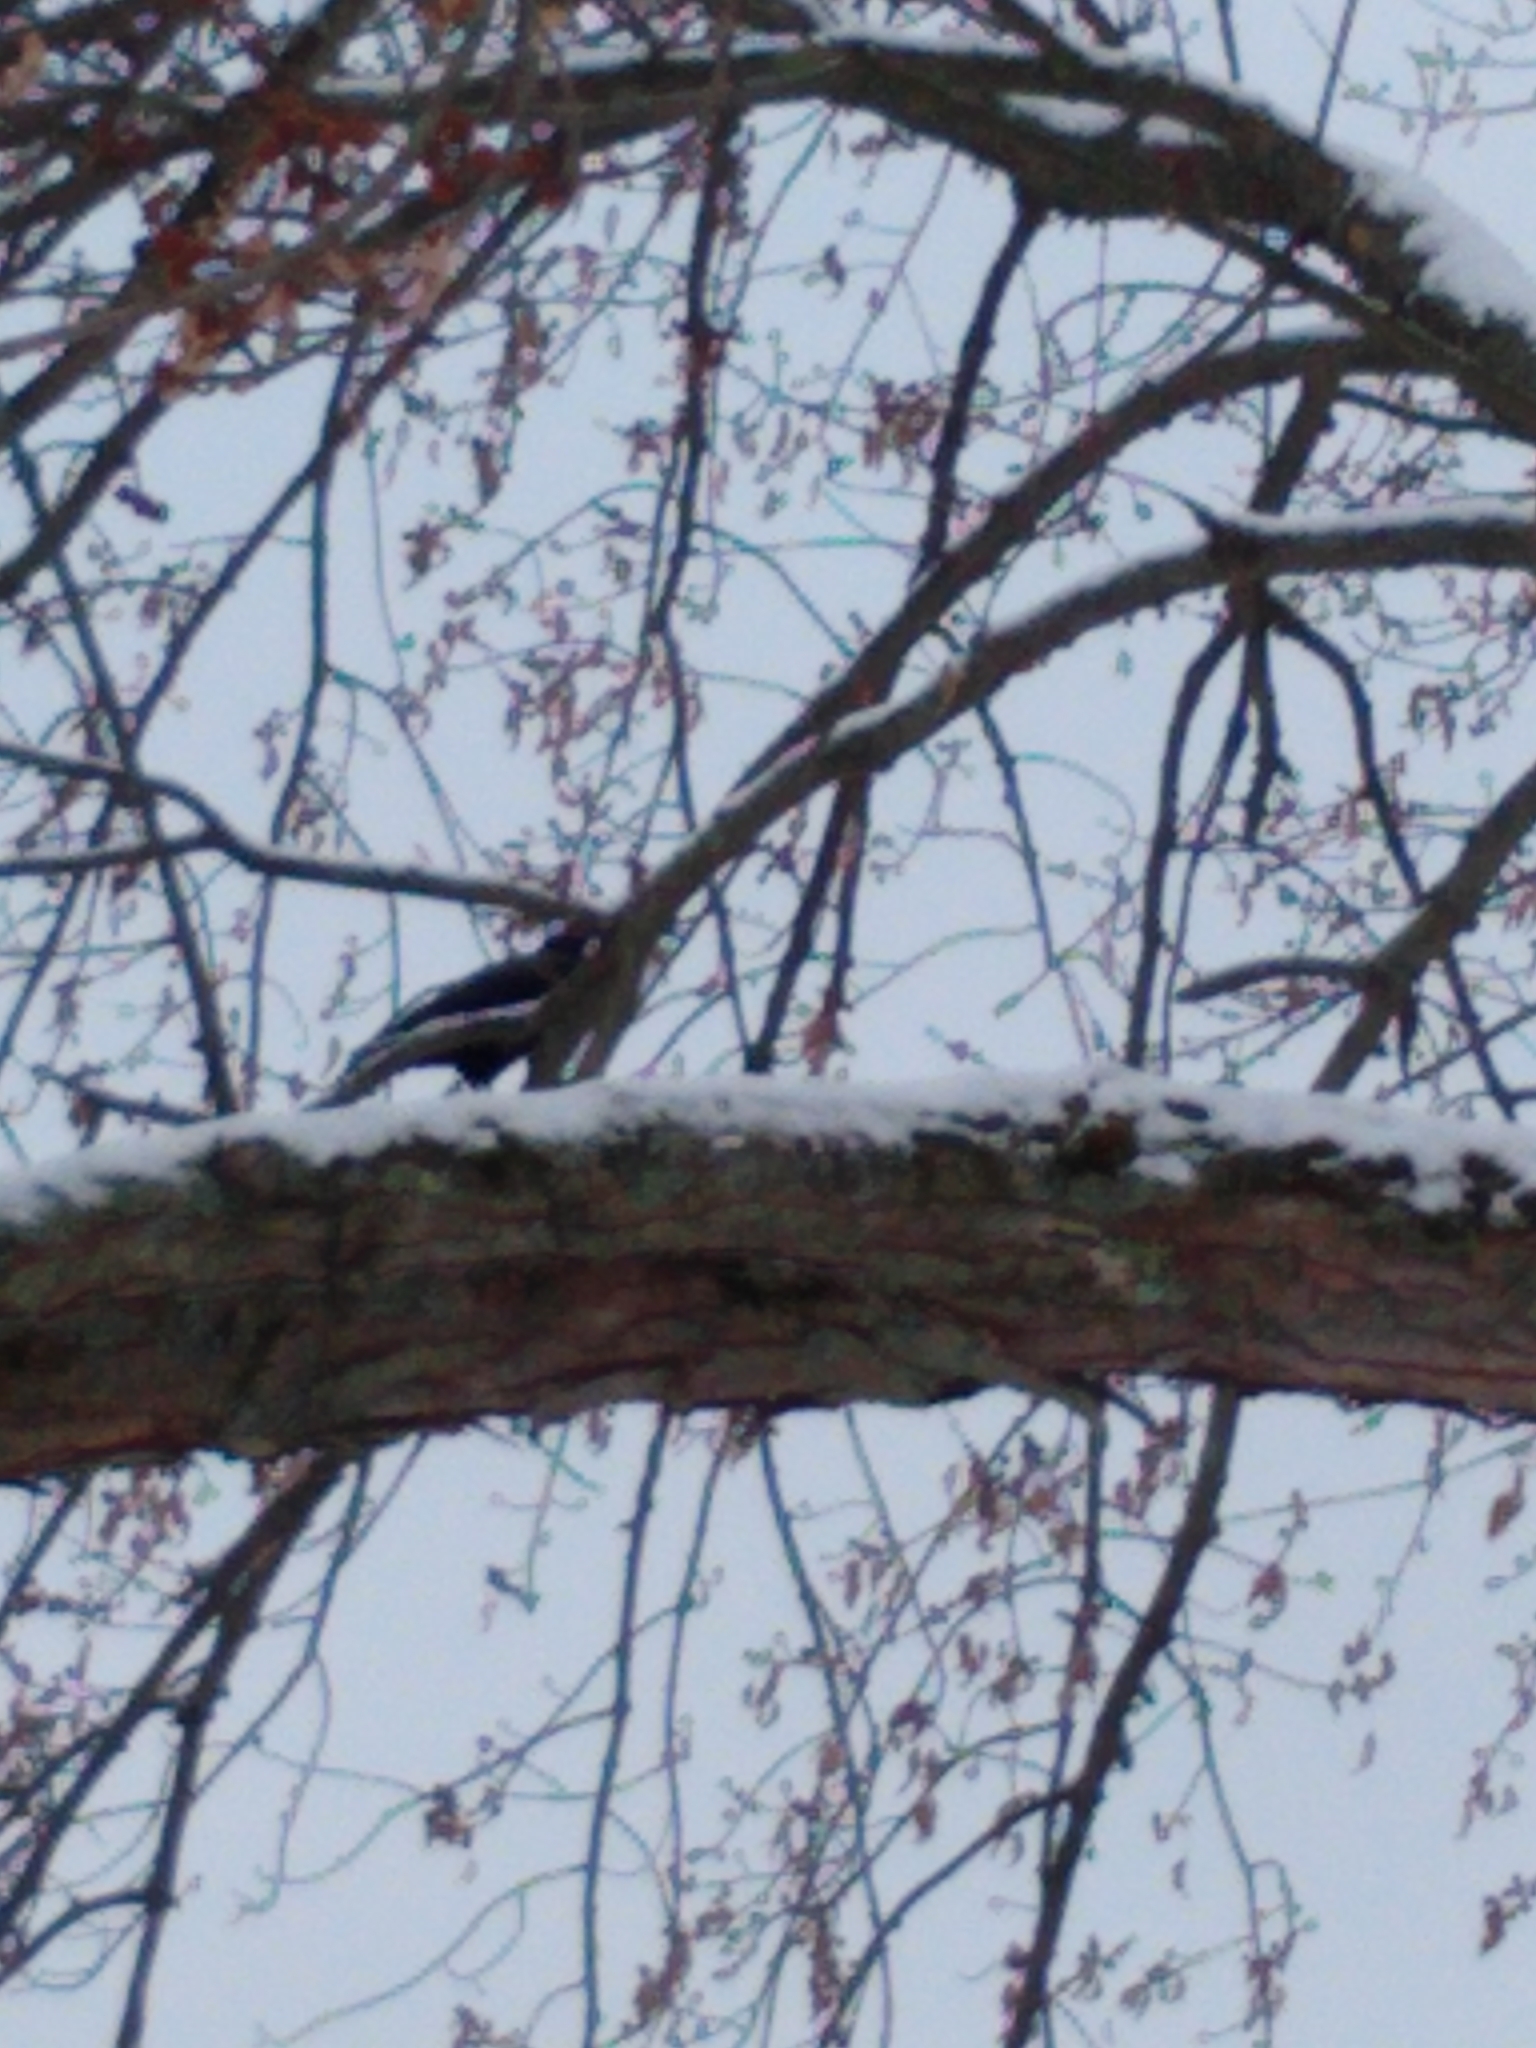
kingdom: Animalia
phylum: Chordata
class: Aves
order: Passeriformes
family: Corvidae
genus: Corvus
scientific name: Corvus brachyrhynchos
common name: American crow
